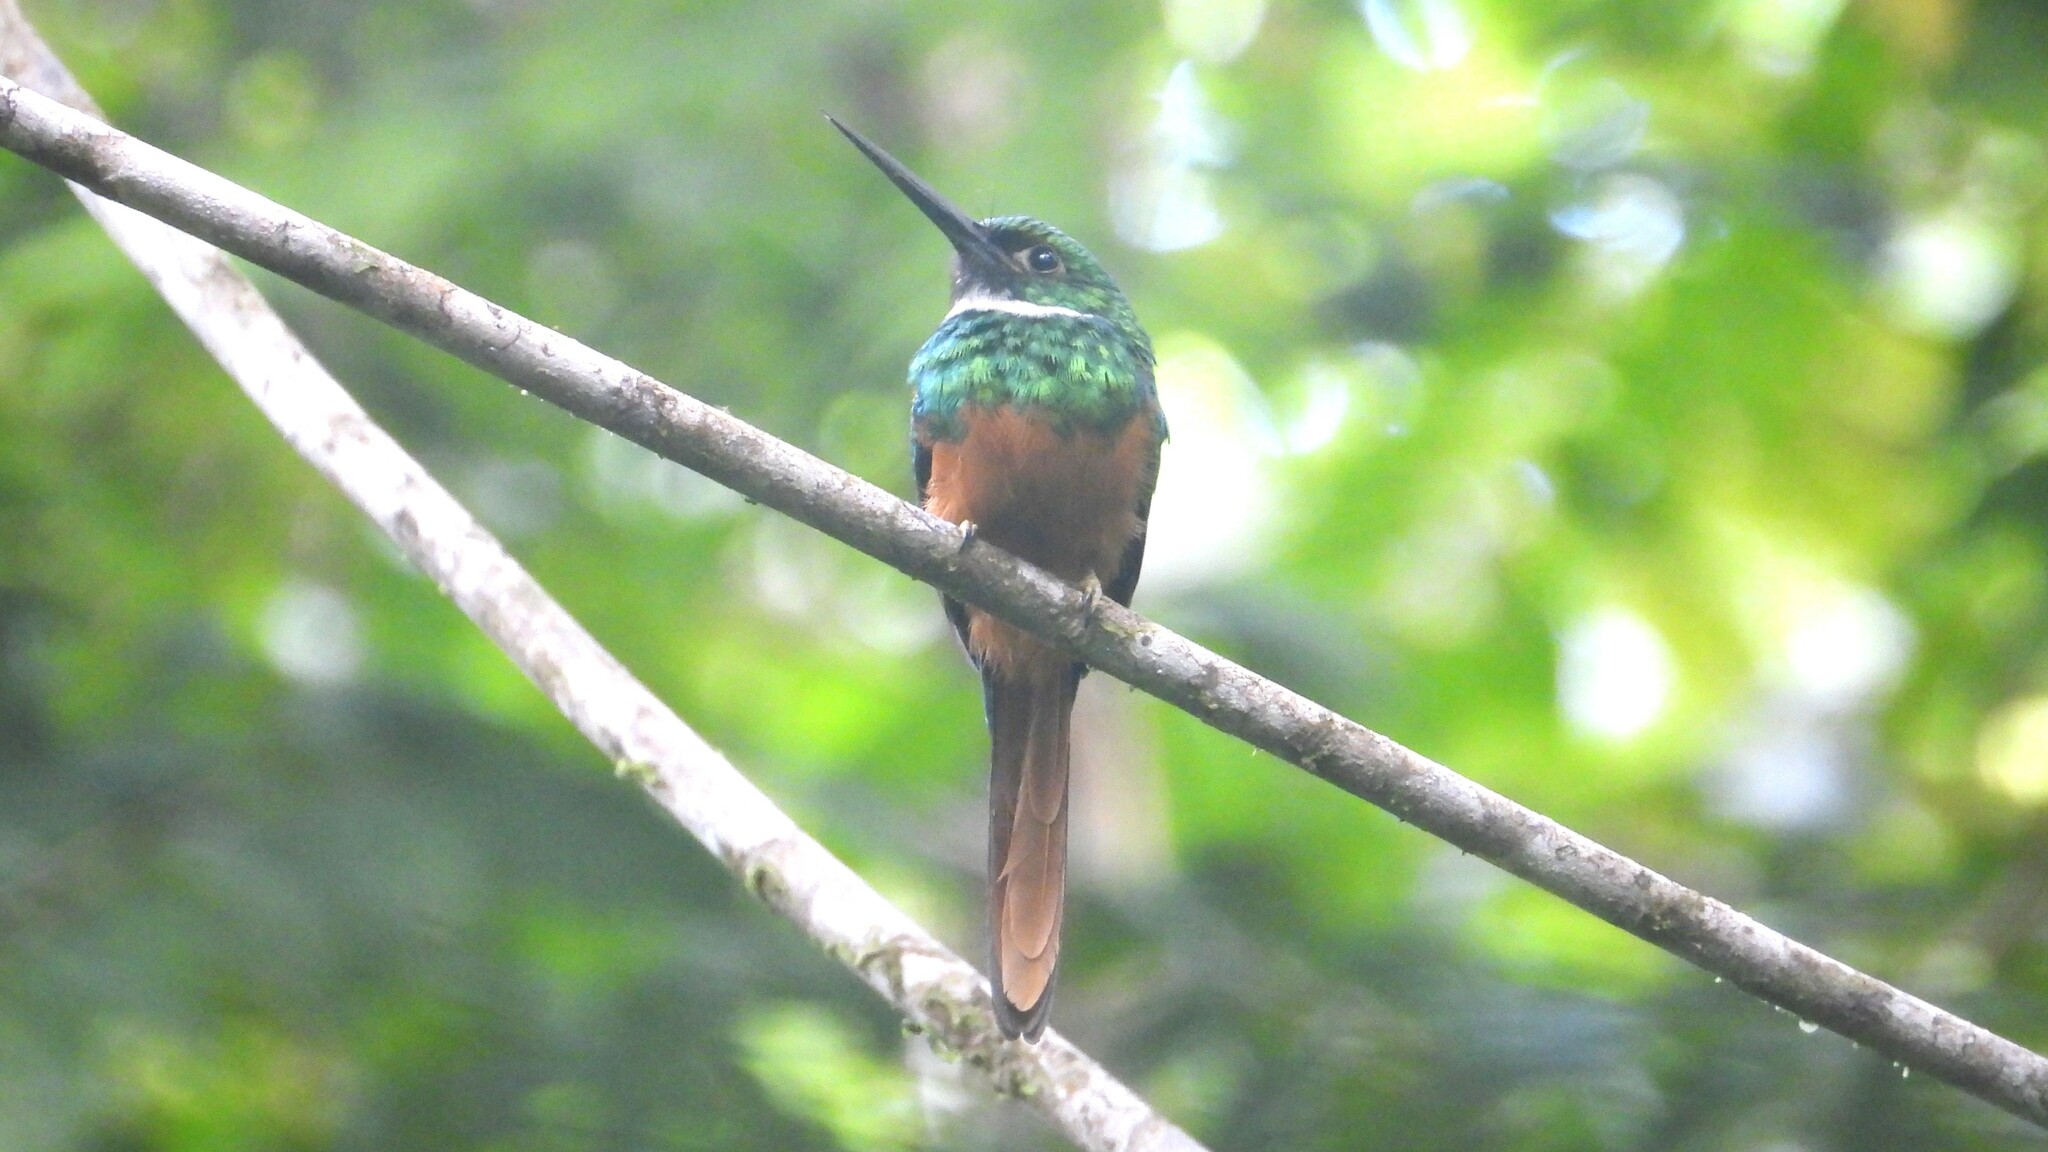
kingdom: Animalia
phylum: Chordata
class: Aves
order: Piciformes
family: Galbulidae
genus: Galbula
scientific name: Galbula ruficauda
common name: Rufous-tailed jacamar
